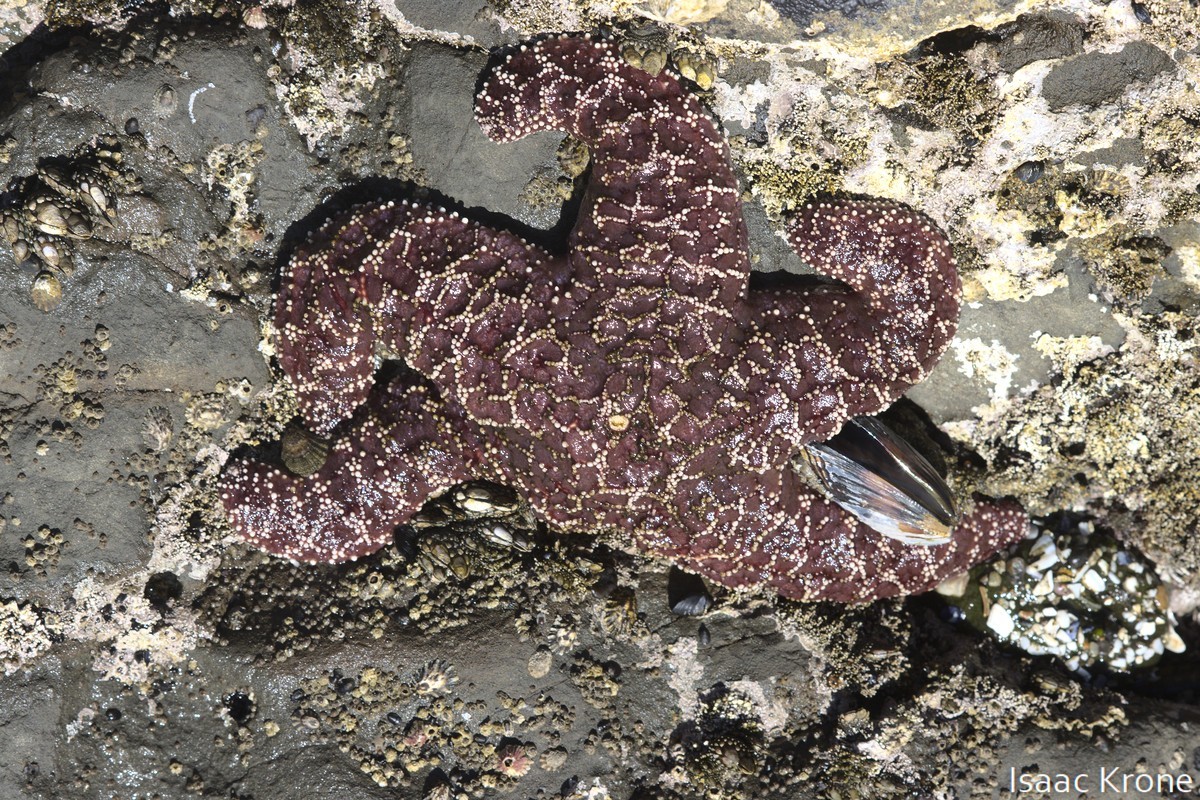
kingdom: Animalia
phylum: Echinodermata
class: Asteroidea
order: Forcipulatida
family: Asteriidae
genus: Pisaster
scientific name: Pisaster ochraceus
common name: Ochre stars
